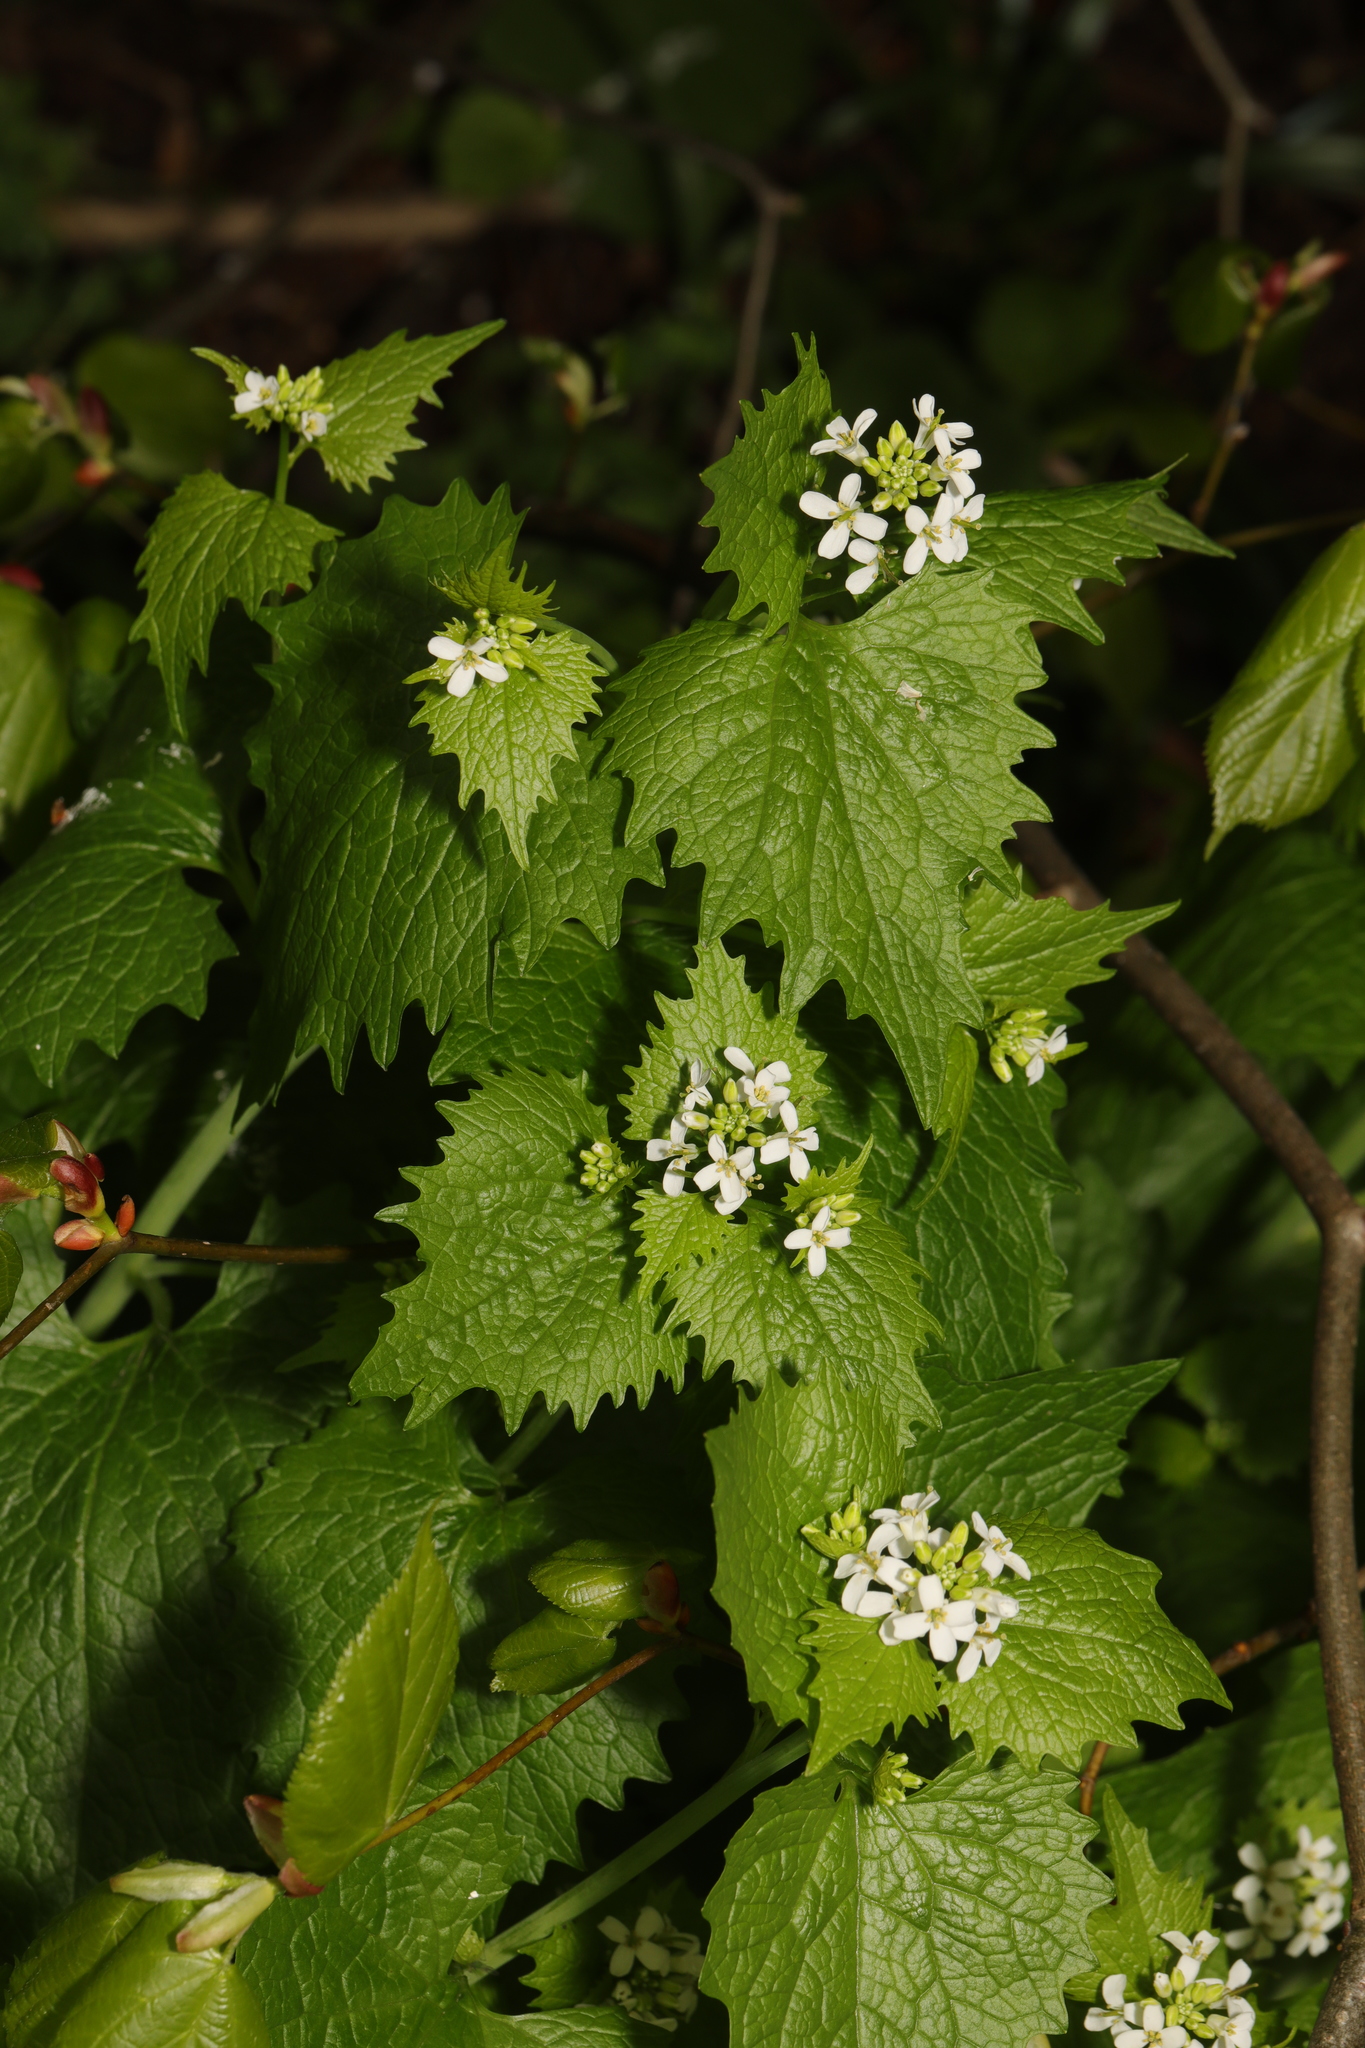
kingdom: Plantae
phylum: Tracheophyta
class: Magnoliopsida
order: Brassicales
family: Brassicaceae
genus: Alliaria
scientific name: Alliaria petiolata
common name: Garlic mustard
